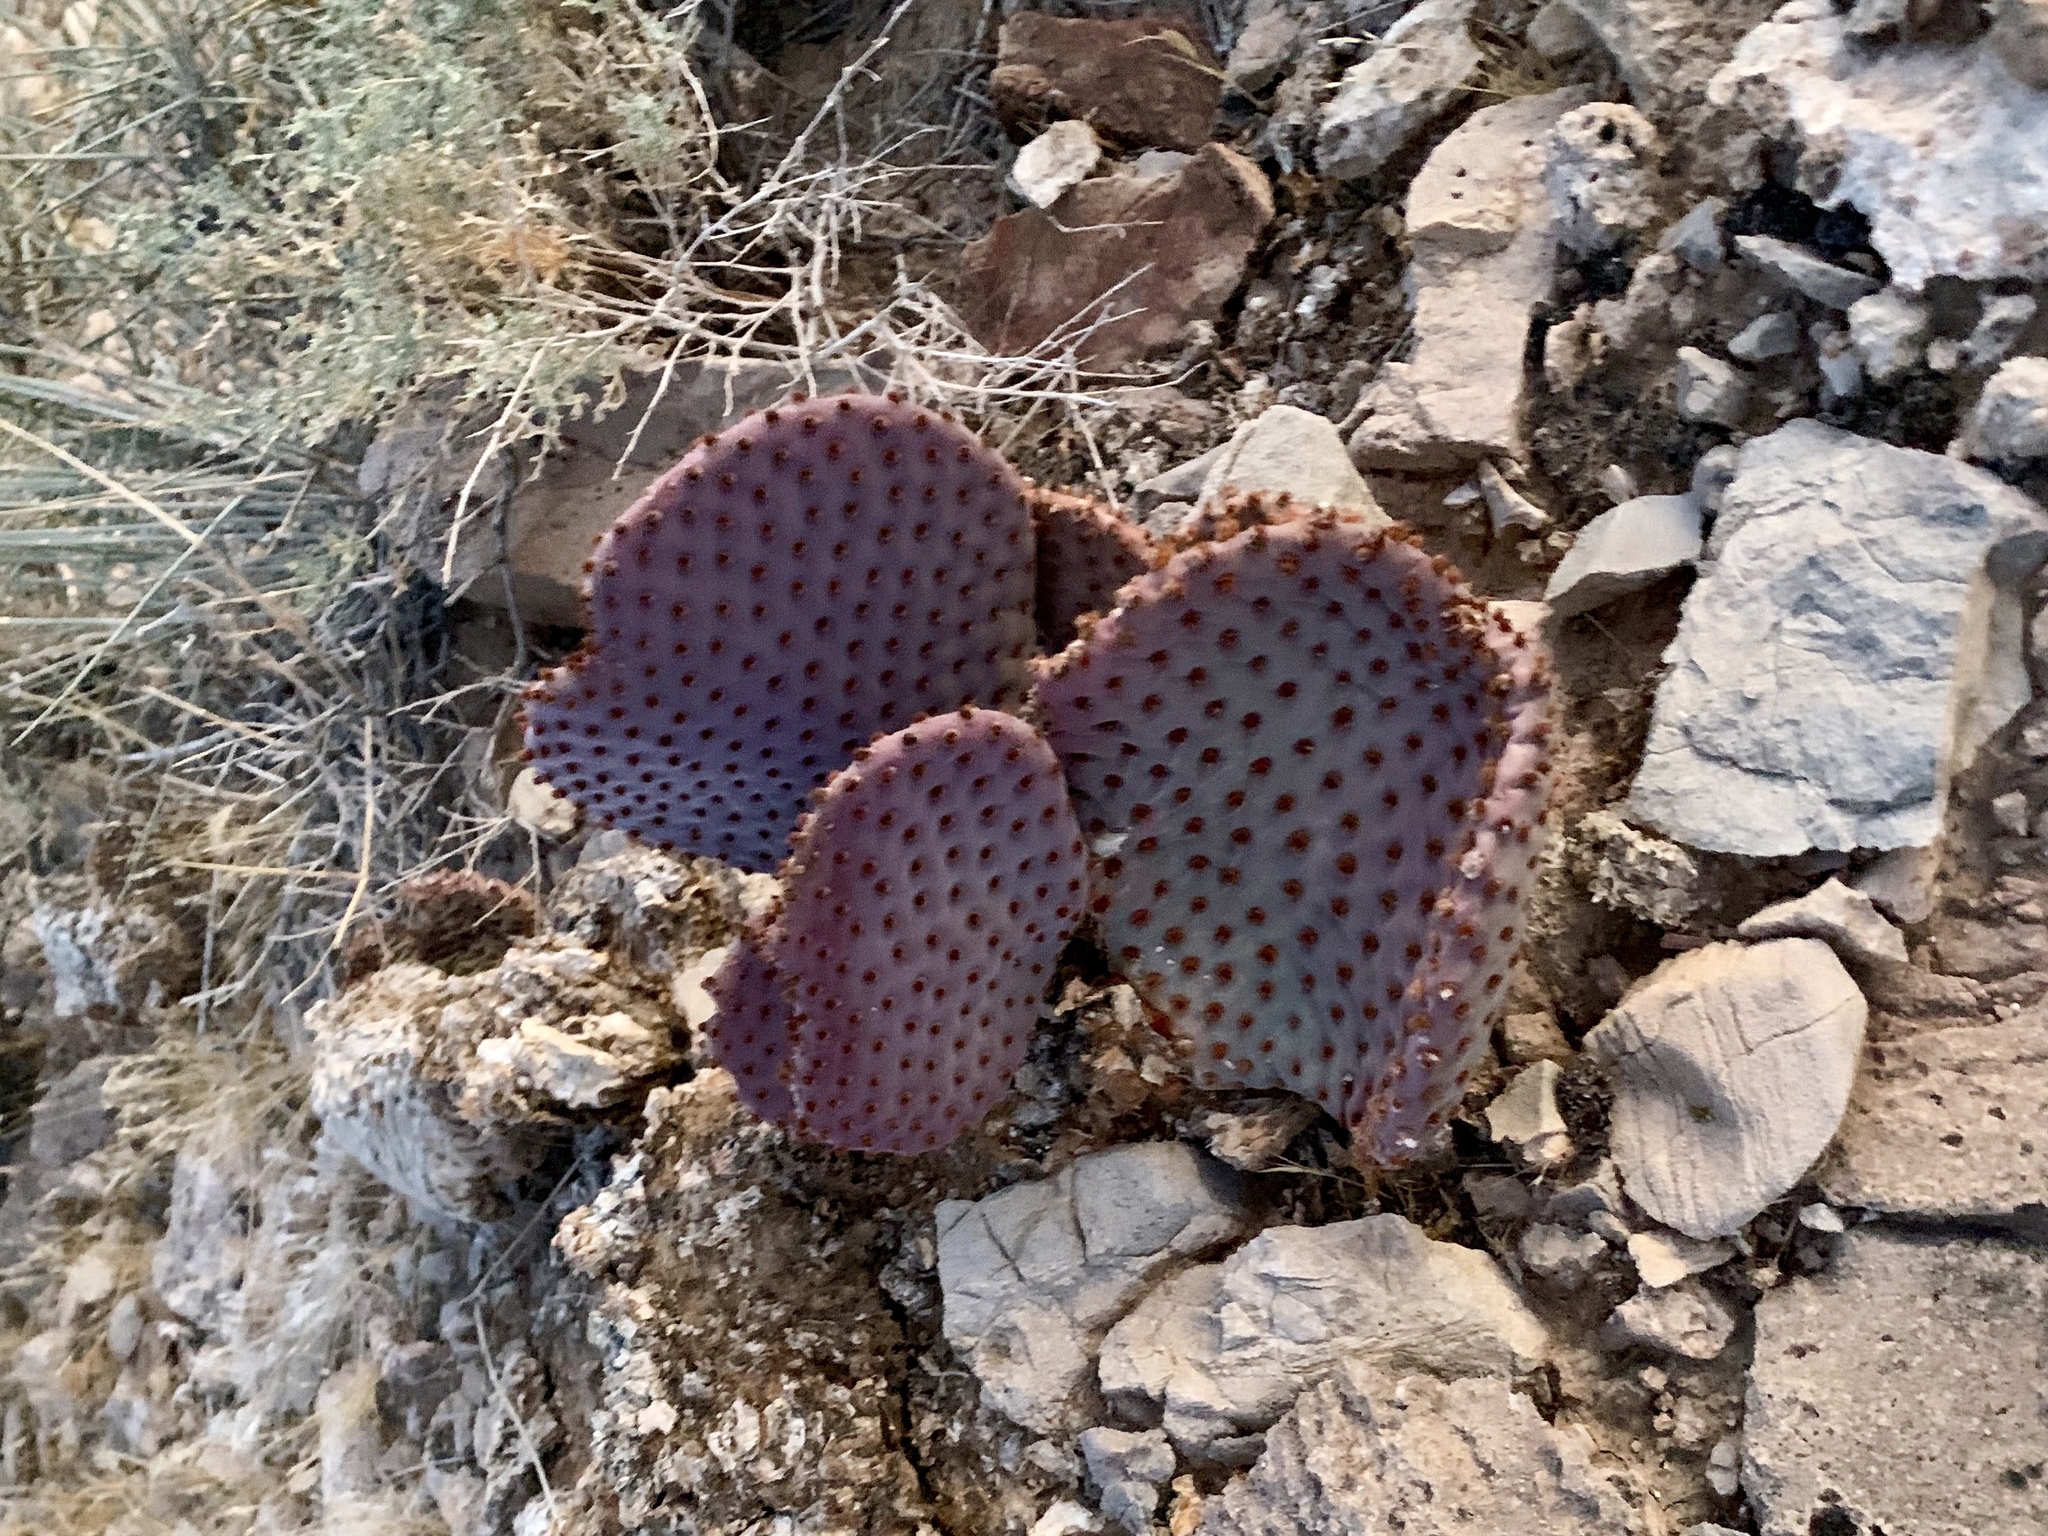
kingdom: Plantae
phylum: Tracheophyta
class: Magnoliopsida
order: Caryophyllales
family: Cactaceae
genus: Opuntia
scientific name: Opuntia basilaris
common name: Beavertail prickly-pear
